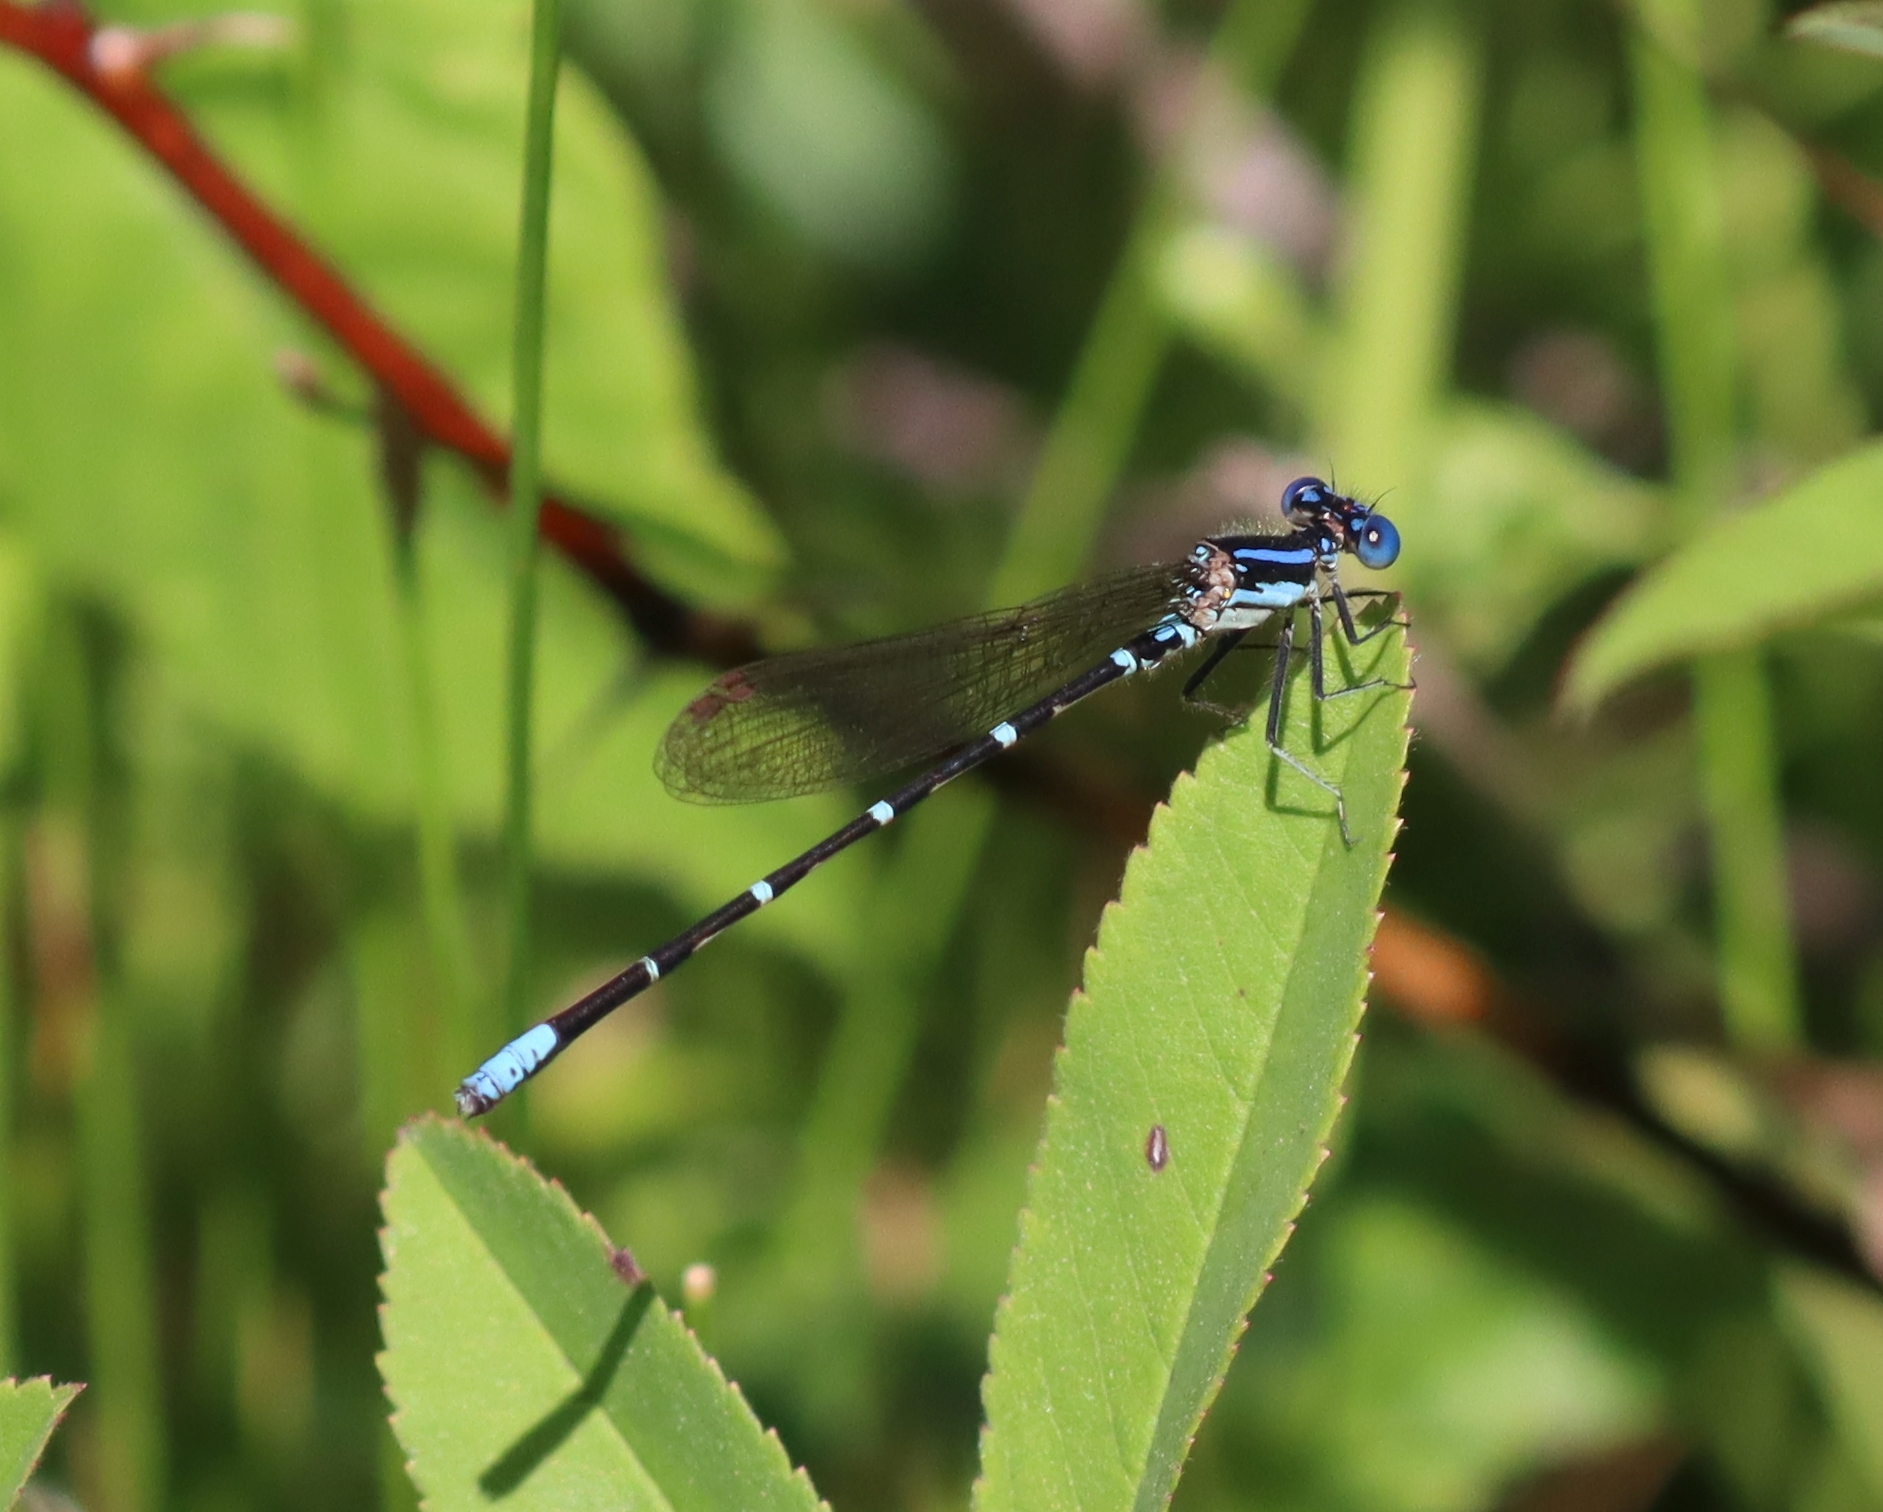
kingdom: Animalia
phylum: Arthropoda
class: Insecta
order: Odonata
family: Coenagrionidae
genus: Argia
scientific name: Argia sedula
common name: Blue-ringed dancer
